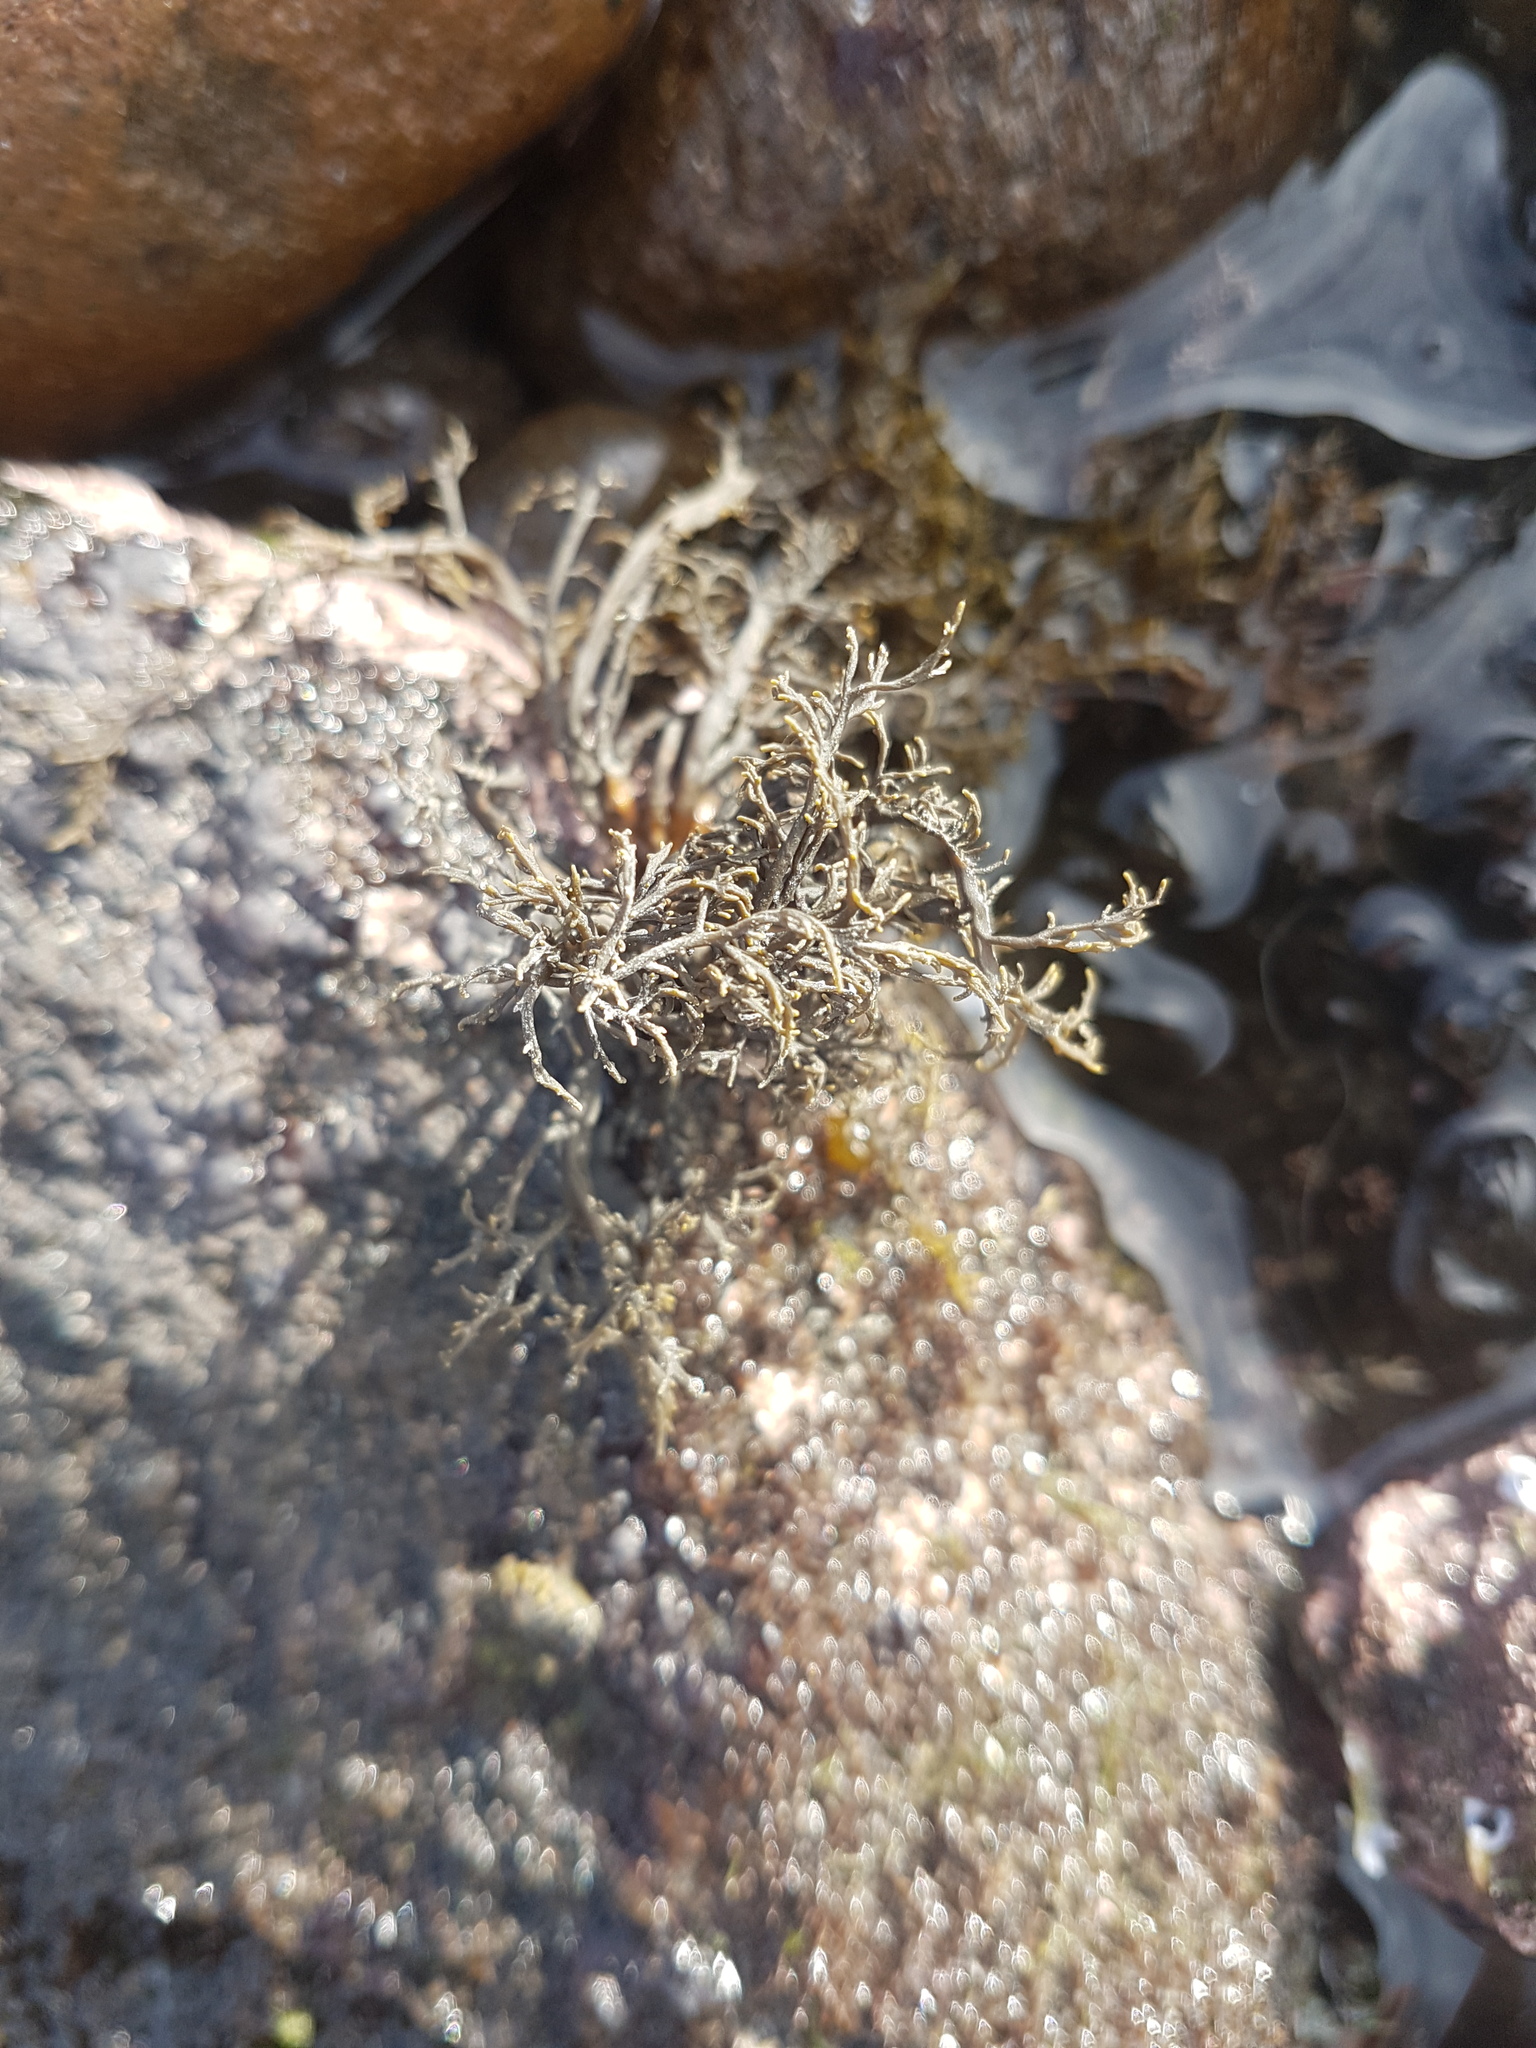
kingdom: Chromista
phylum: Ochrophyta
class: Phaeophyceae
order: Scytothamnales
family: Scytothamnaceae
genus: Scytothamnus
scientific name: Scytothamnus australis
